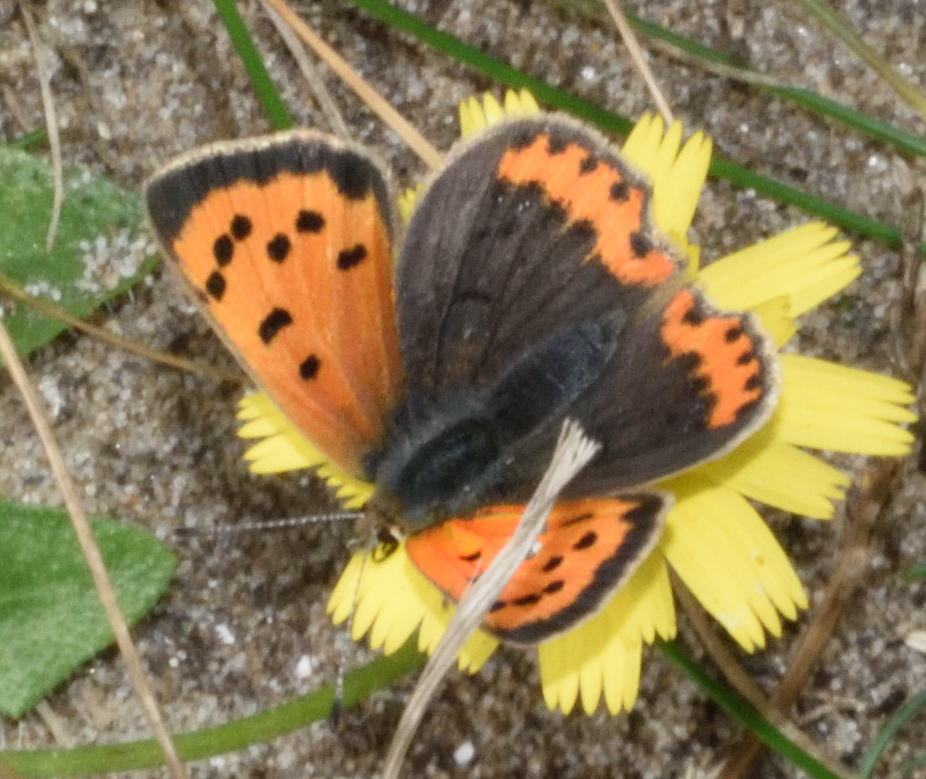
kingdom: Animalia
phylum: Arthropoda
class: Insecta
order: Lepidoptera
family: Lycaenidae
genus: Lycaena
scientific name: Lycaena phlaeas
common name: Small copper
